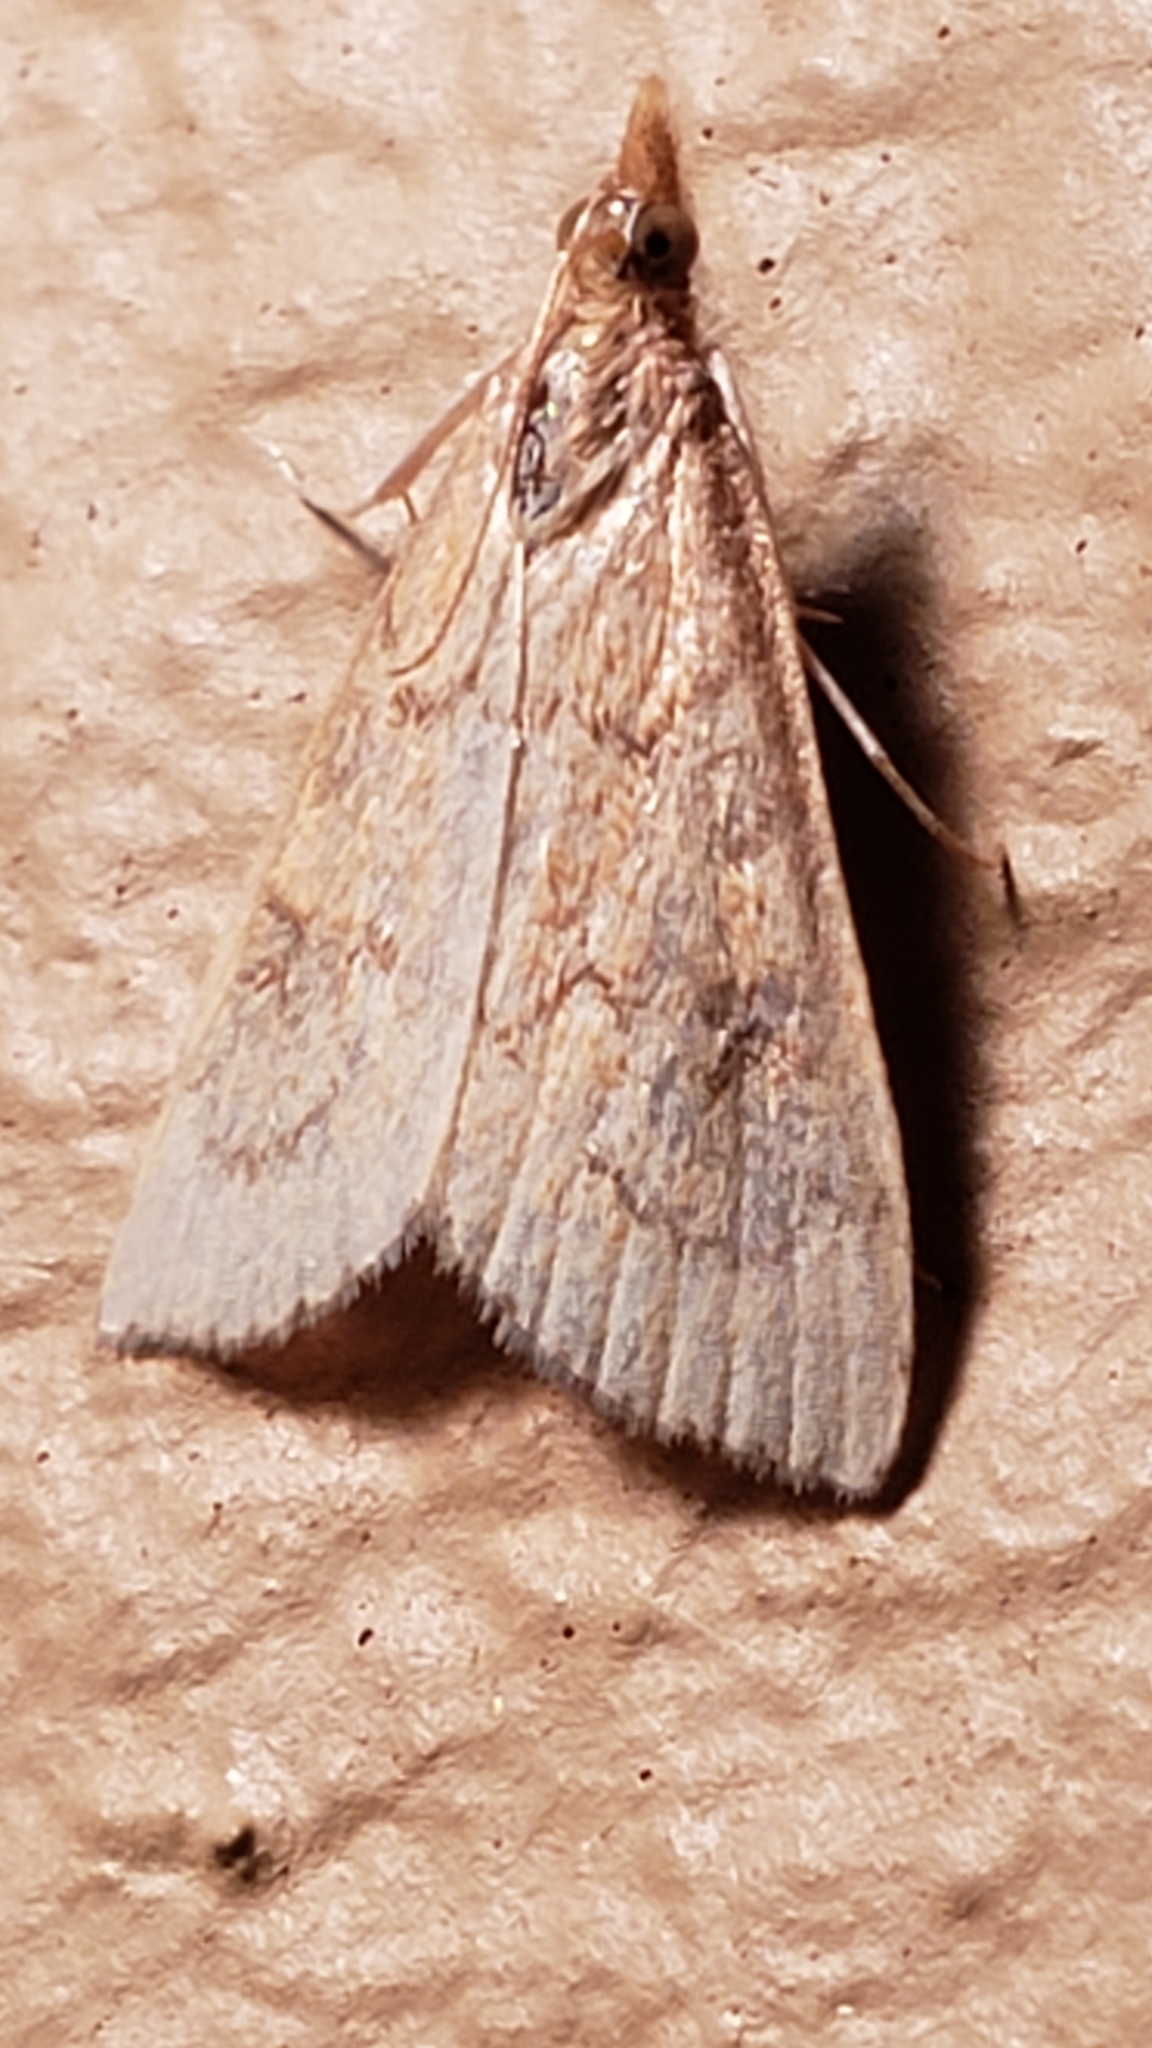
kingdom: Animalia
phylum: Arthropoda
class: Insecta
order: Lepidoptera
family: Crambidae
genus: Udea
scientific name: Udea rubigalis
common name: Celery leaftier moth
